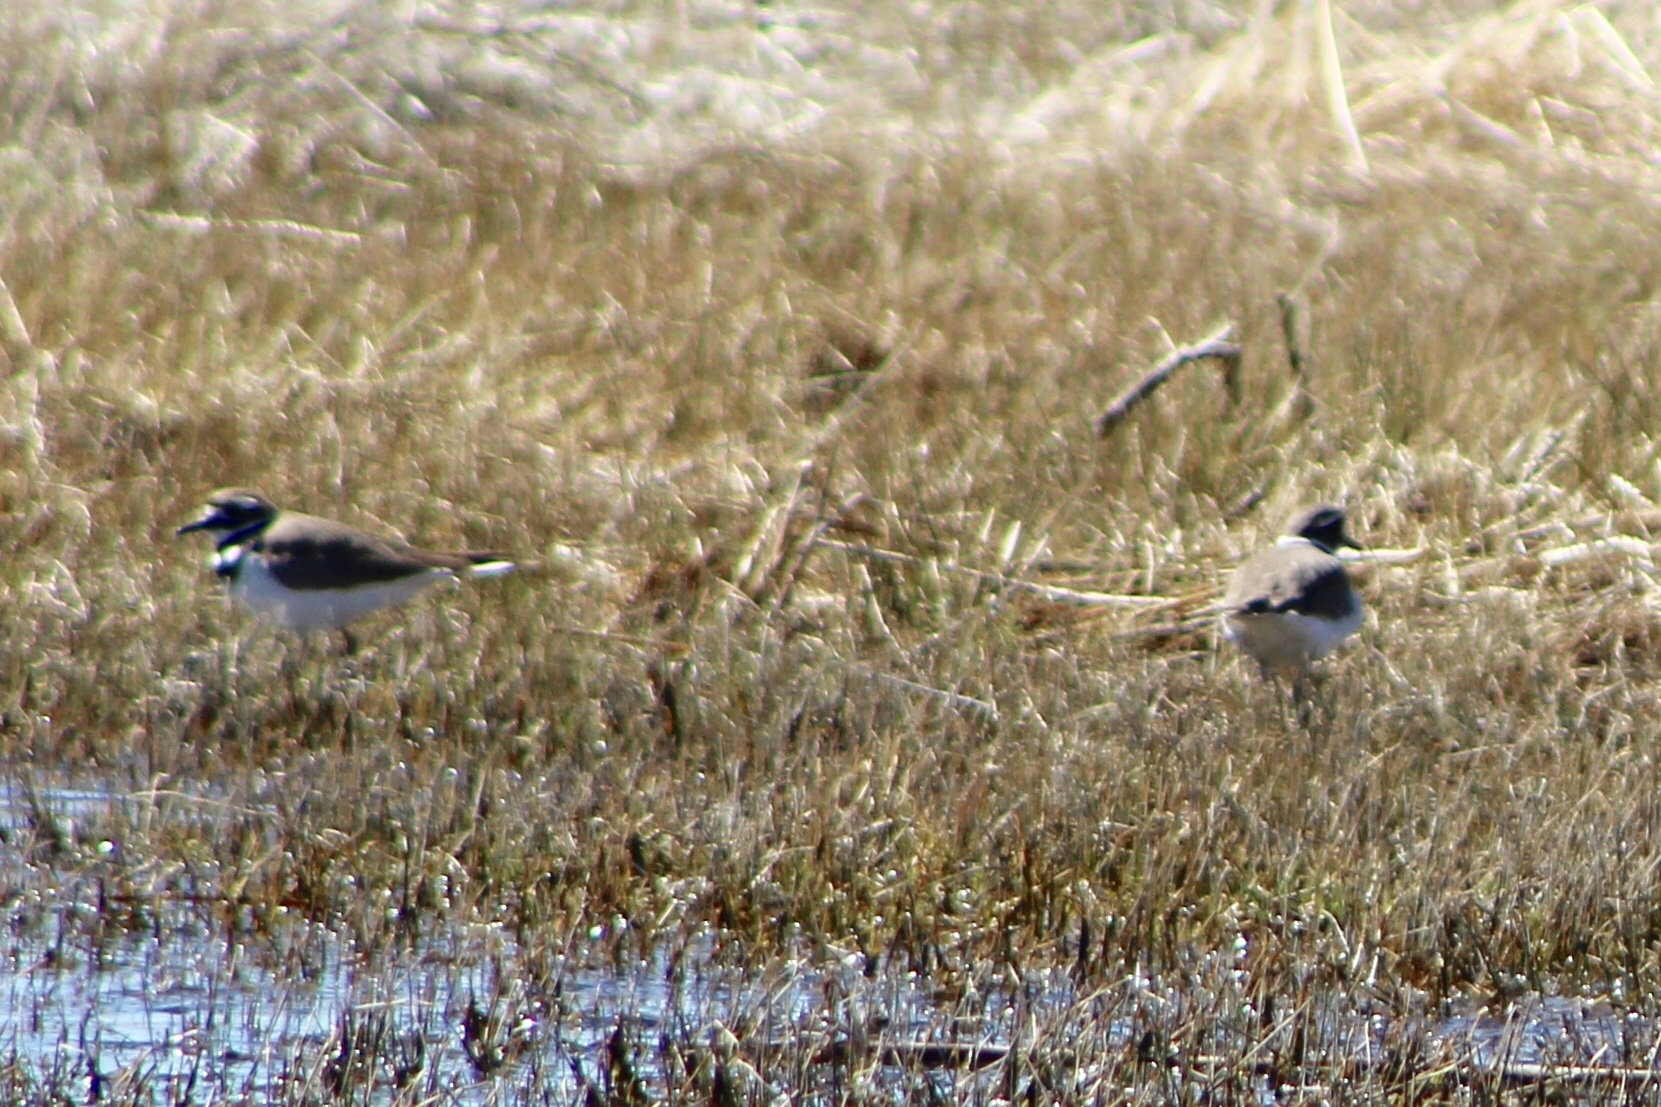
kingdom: Animalia
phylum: Chordata
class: Aves
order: Charadriiformes
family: Charadriidae
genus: Charadrius
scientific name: Charadrius vociferus
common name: Killdeer
